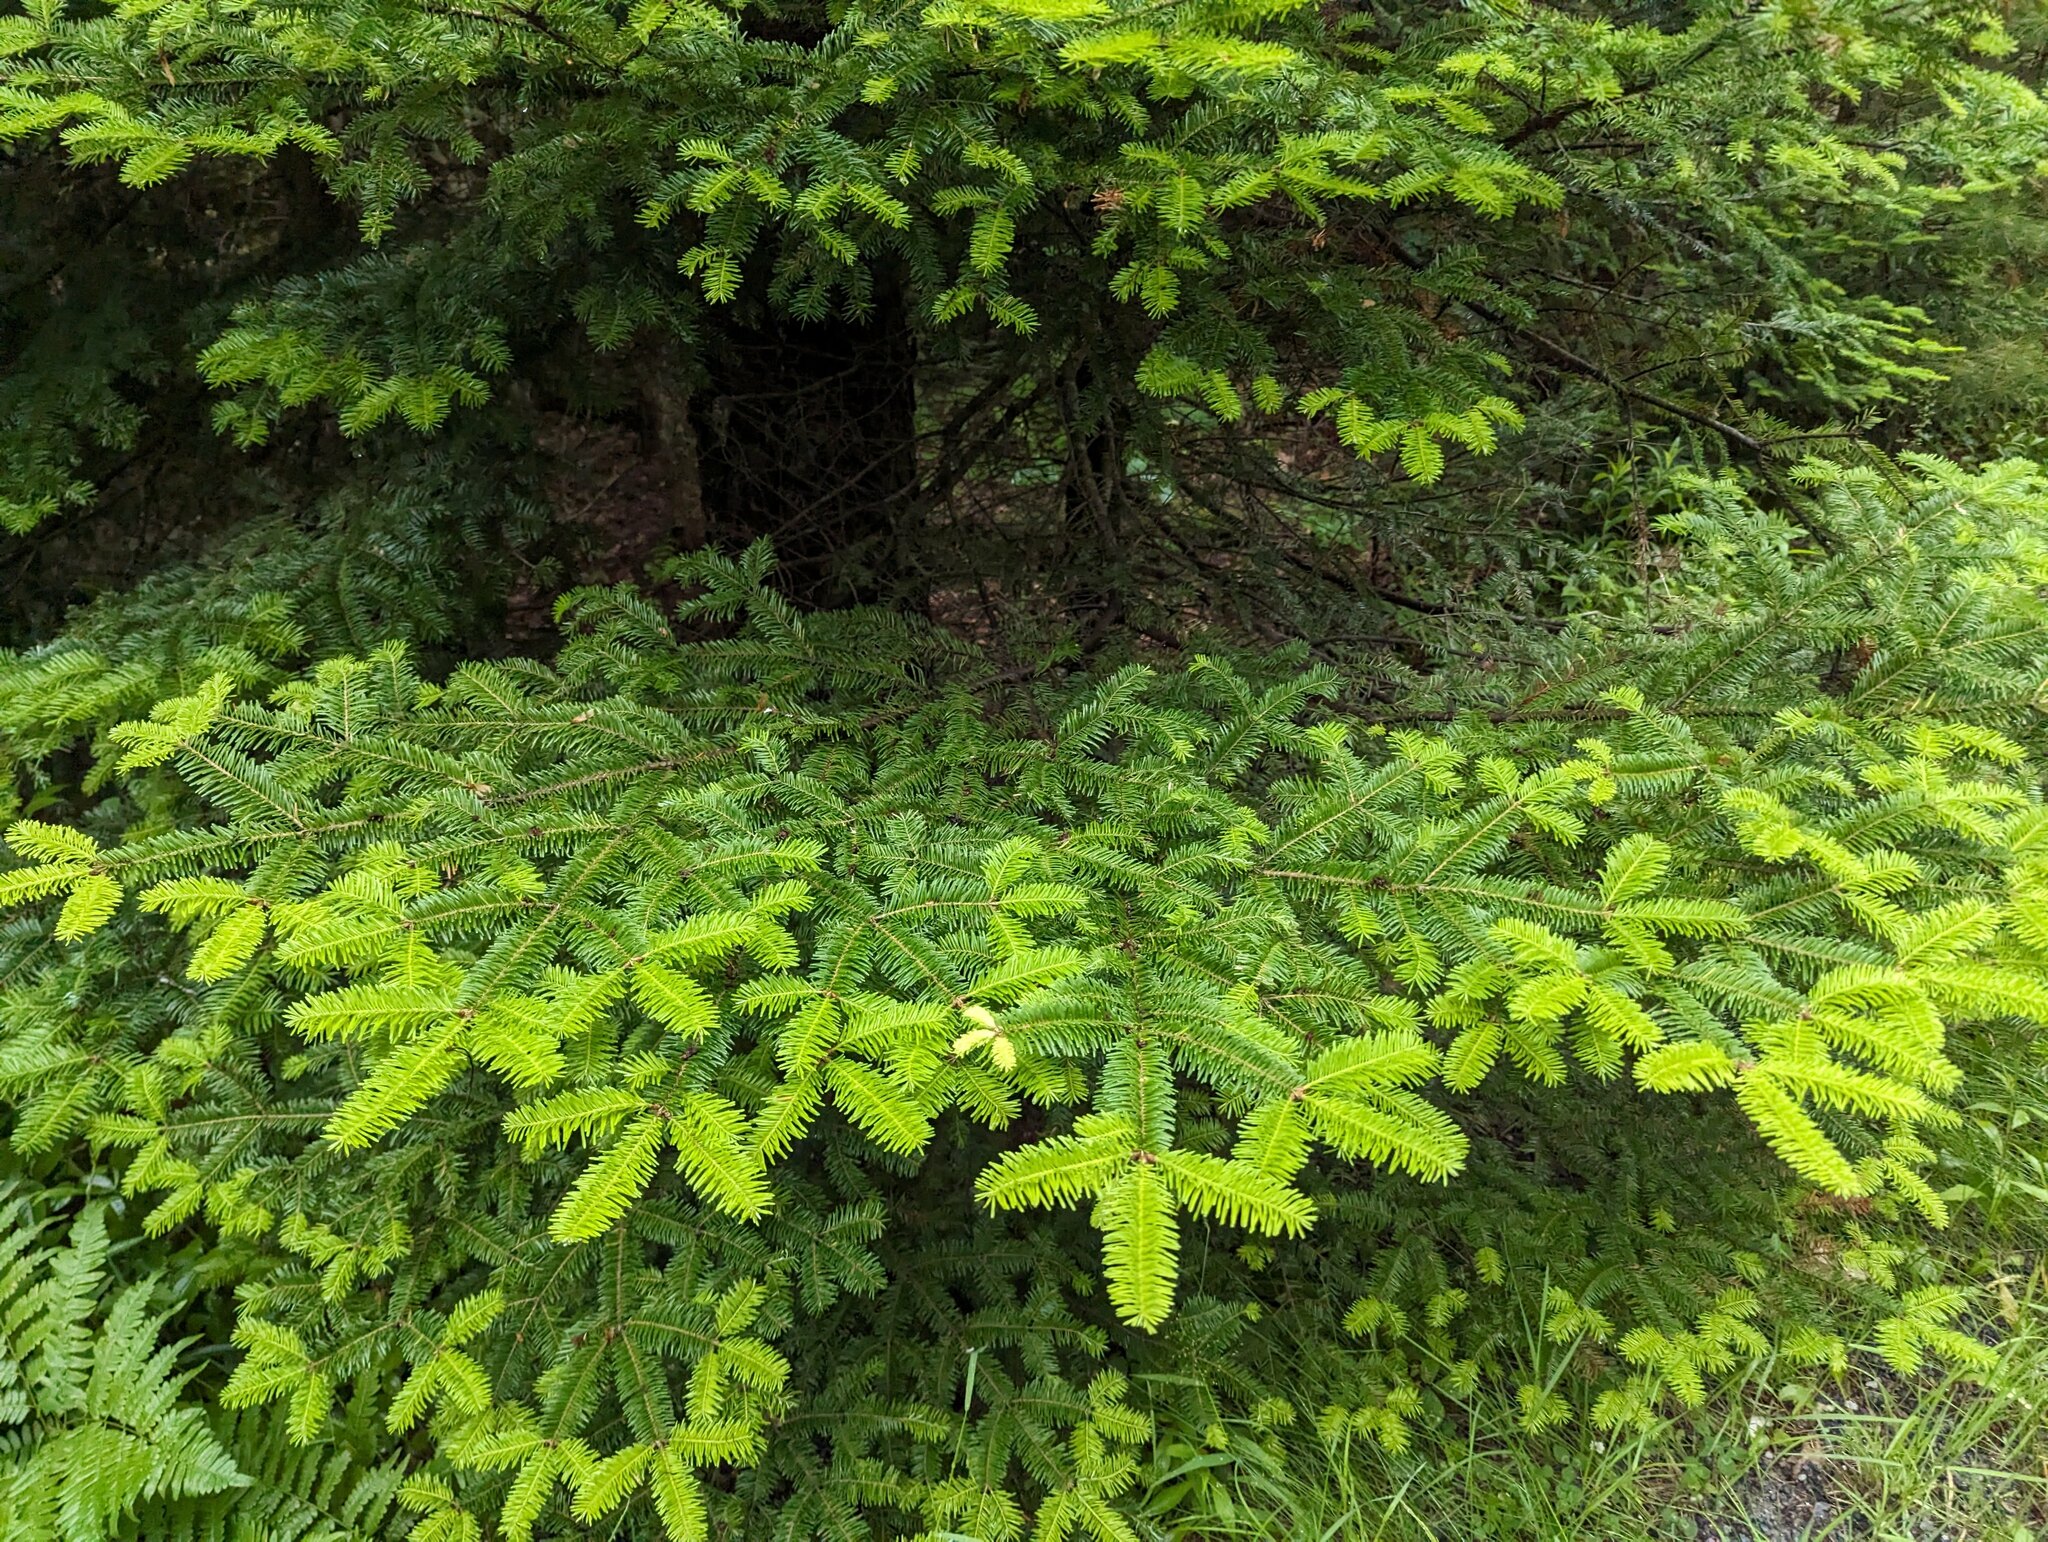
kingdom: Plantae
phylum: Tracheophyta
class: Pinopsida
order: Pinales
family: Pinaceae
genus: Abies
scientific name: Abies balsamea
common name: Balsam fir
